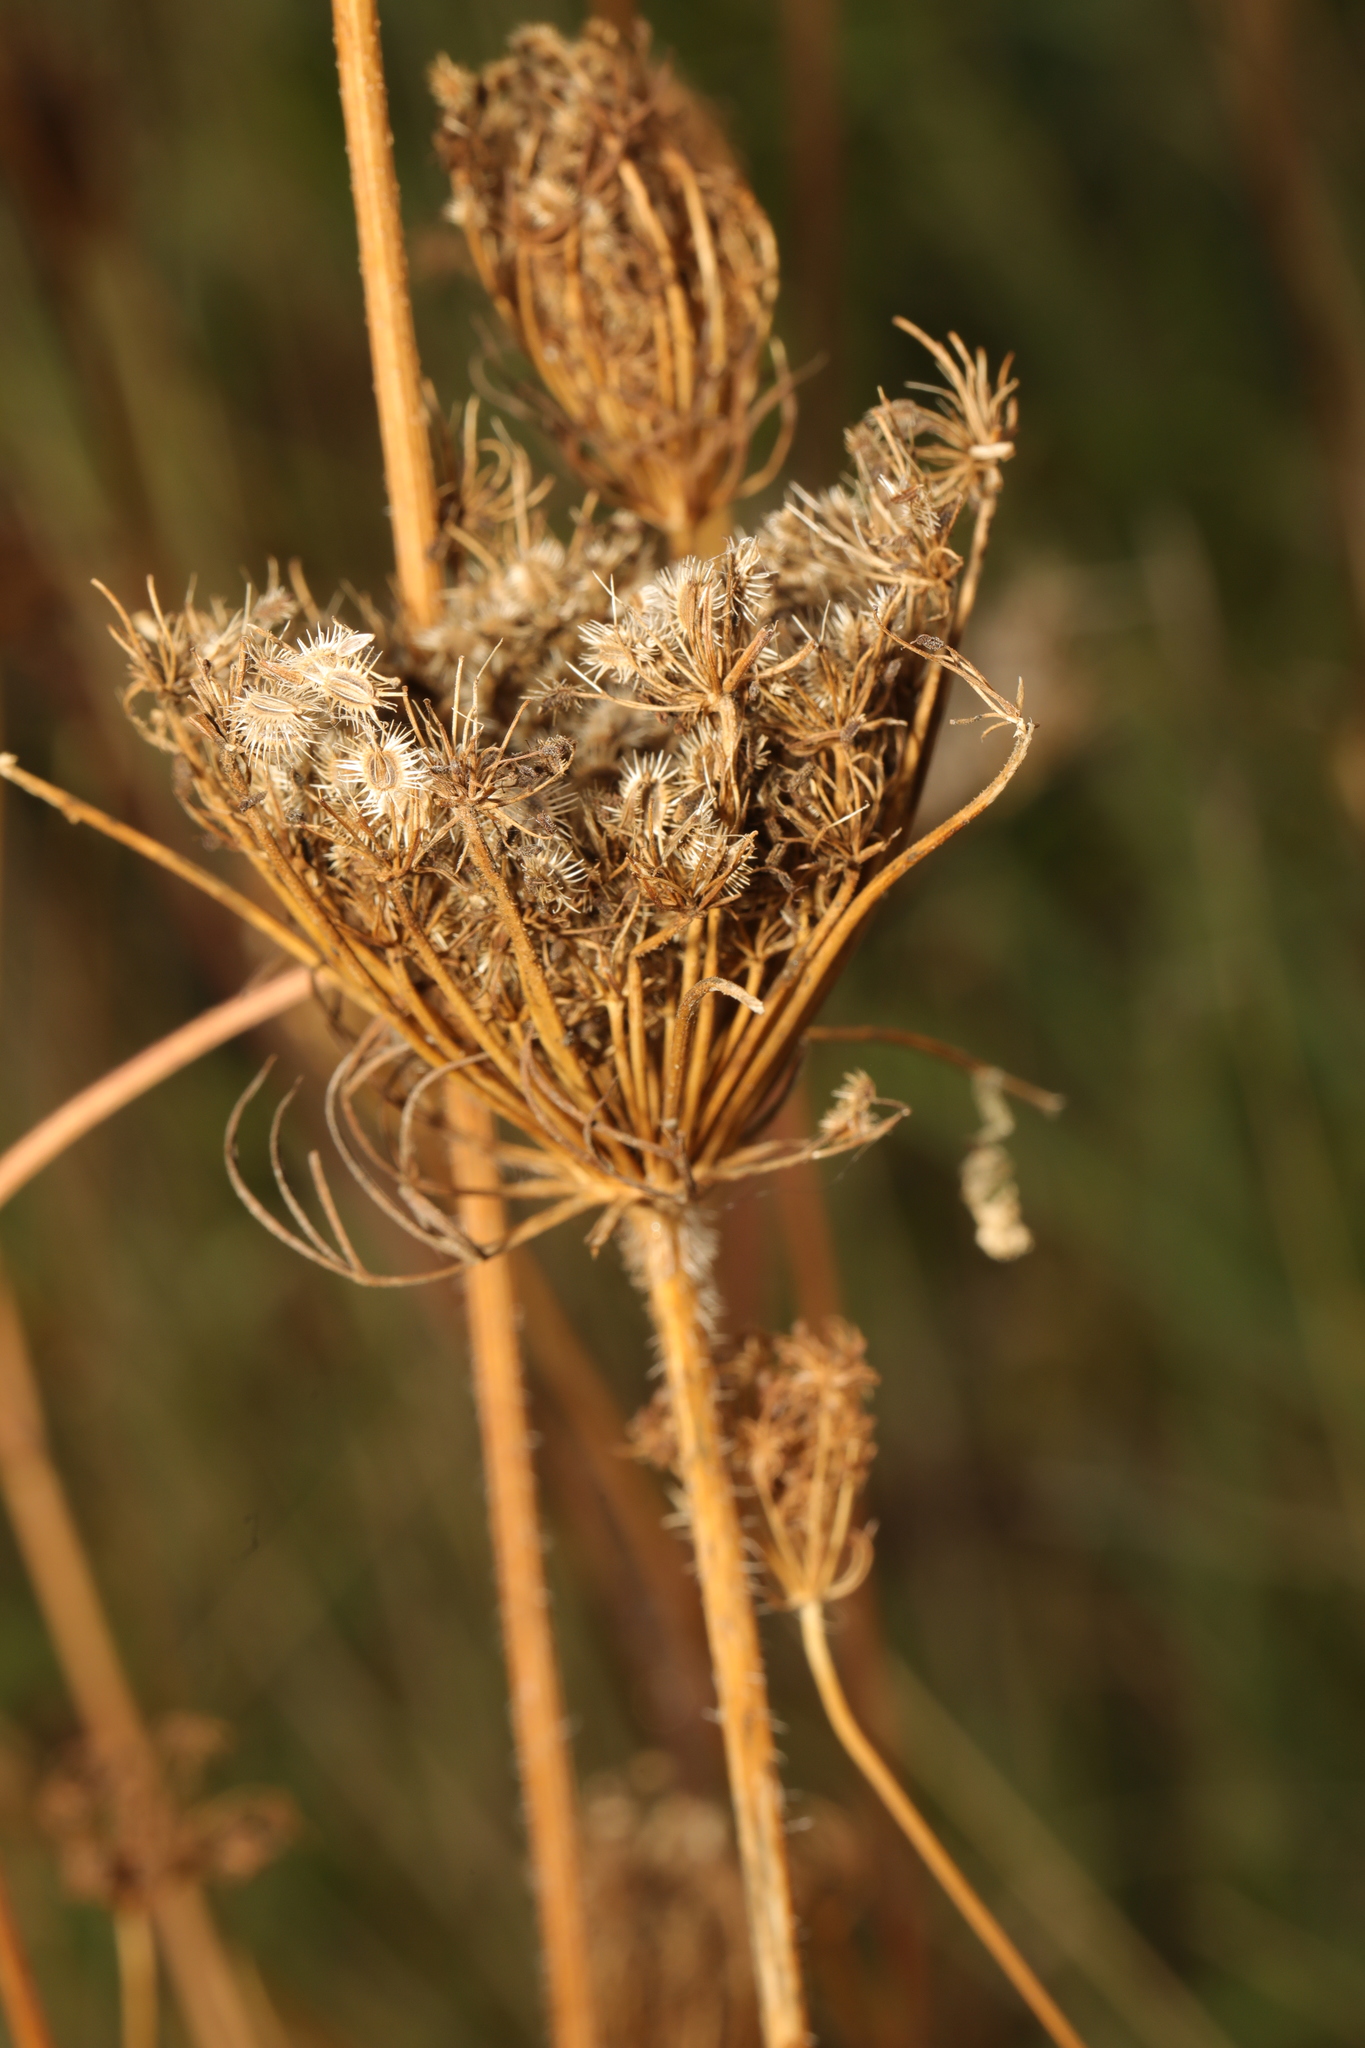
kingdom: Plantae
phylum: Tracheophyta
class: Magnoliopsida
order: Apiales
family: Apiaceae
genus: Daucus
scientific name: Daucus carota
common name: Wild carrot
